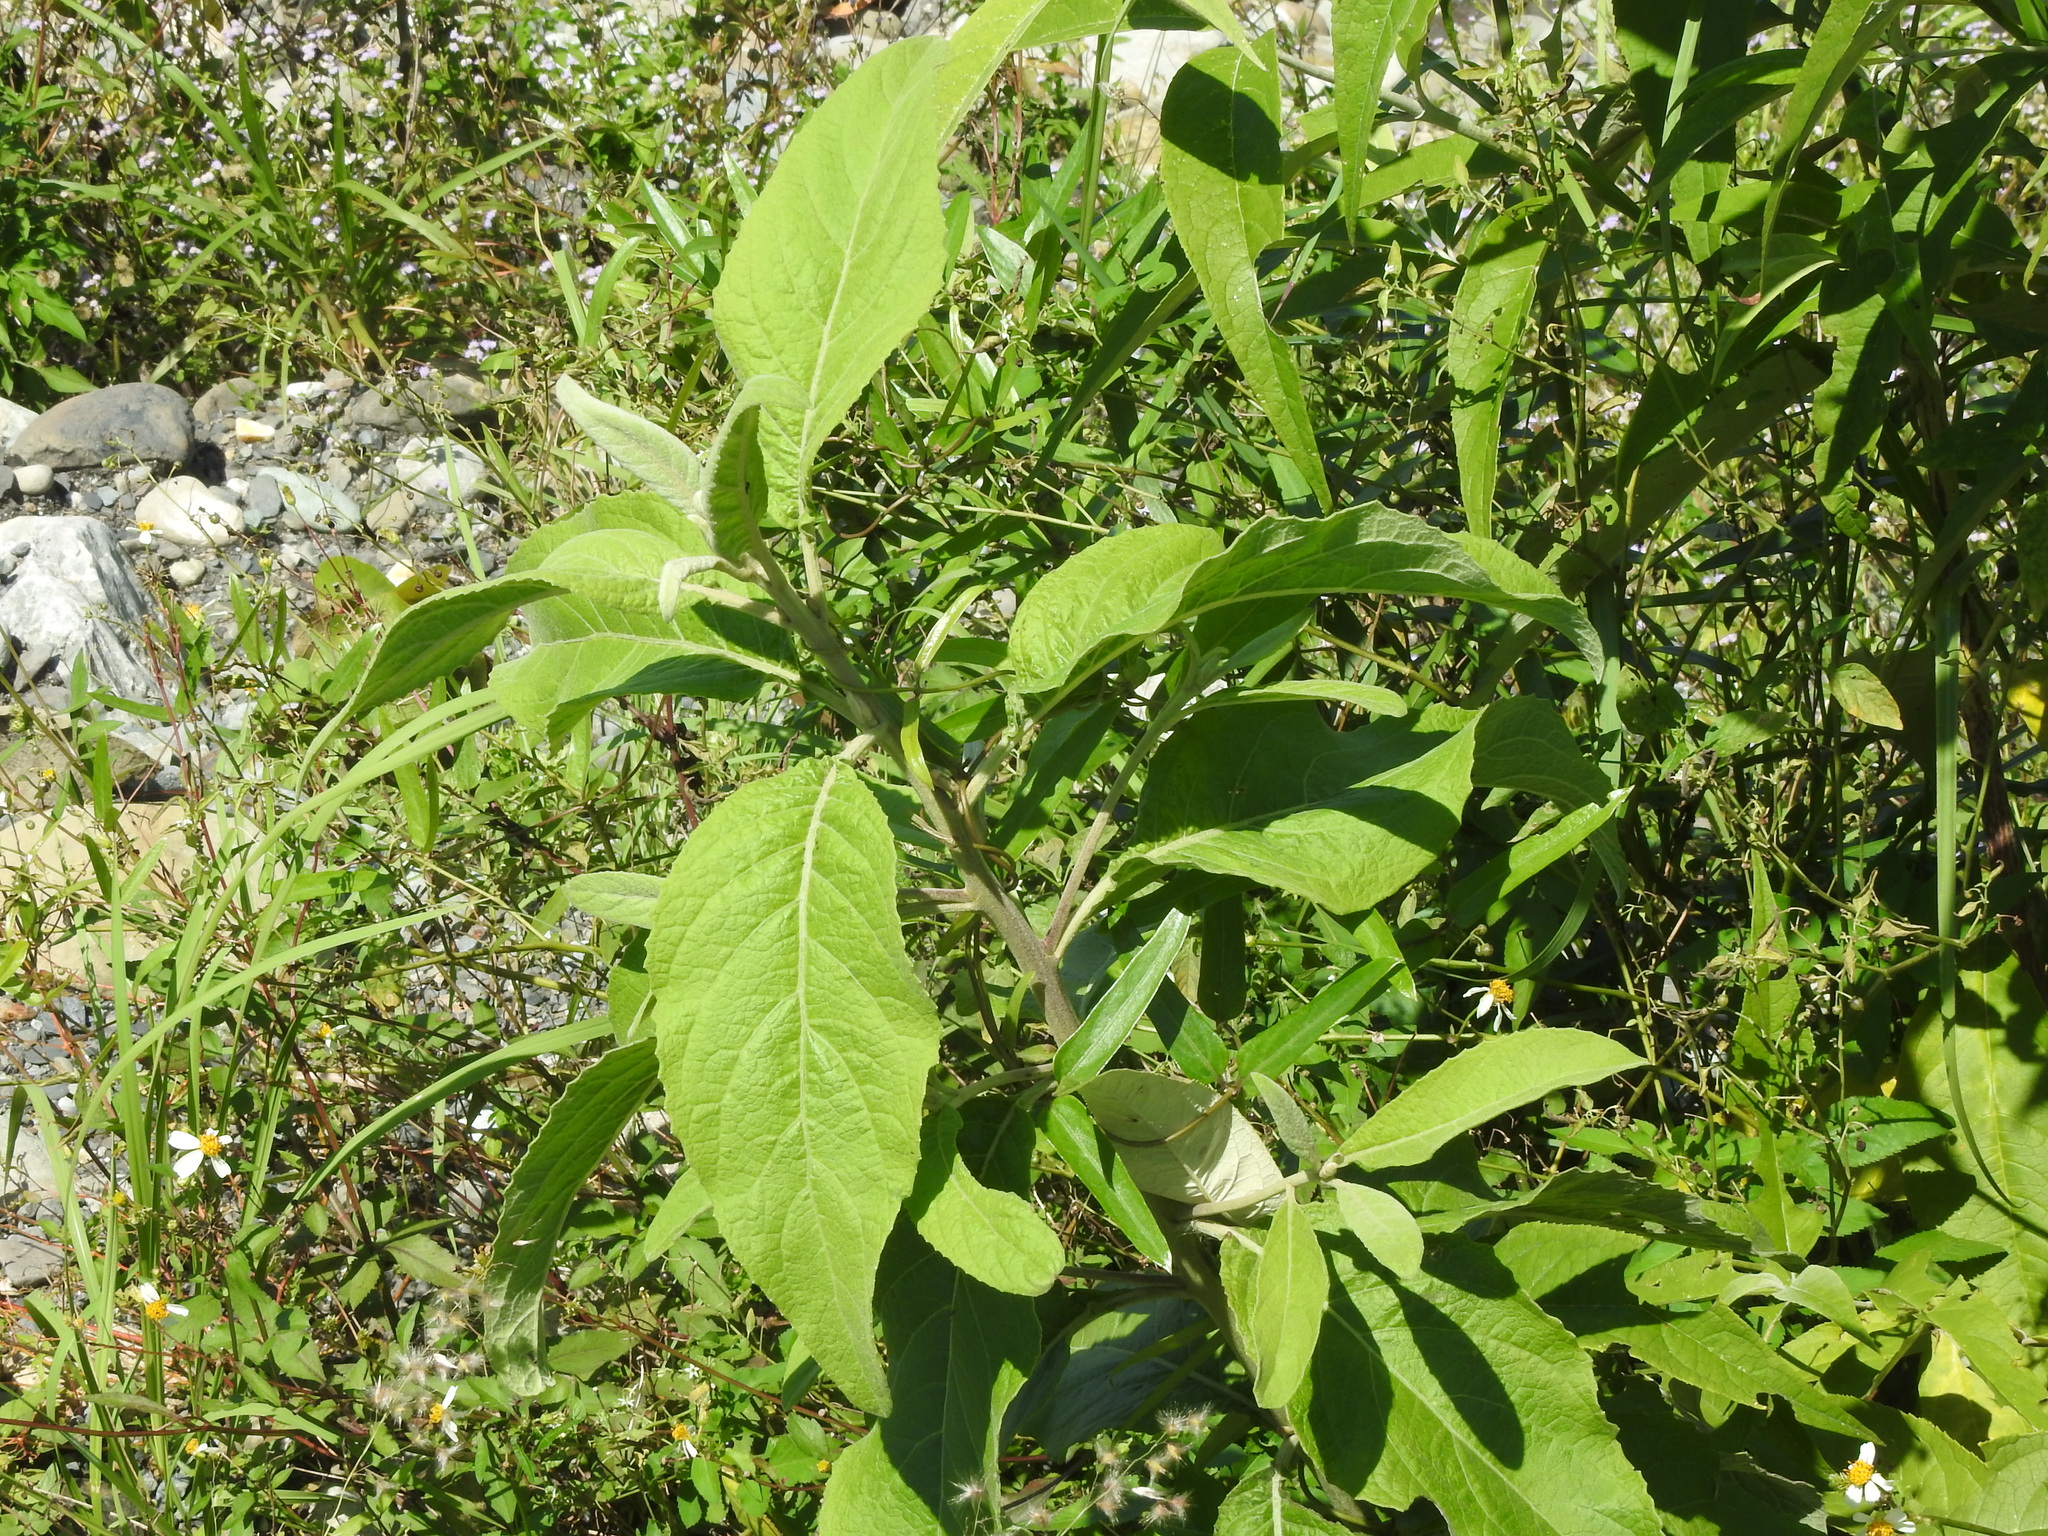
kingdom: Plantae
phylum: Tracheophyta
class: Magnoliopsida
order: Asterales
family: Asteraceae
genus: Pluchea
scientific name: Pluchea carolinensis
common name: Marsh fleabane
